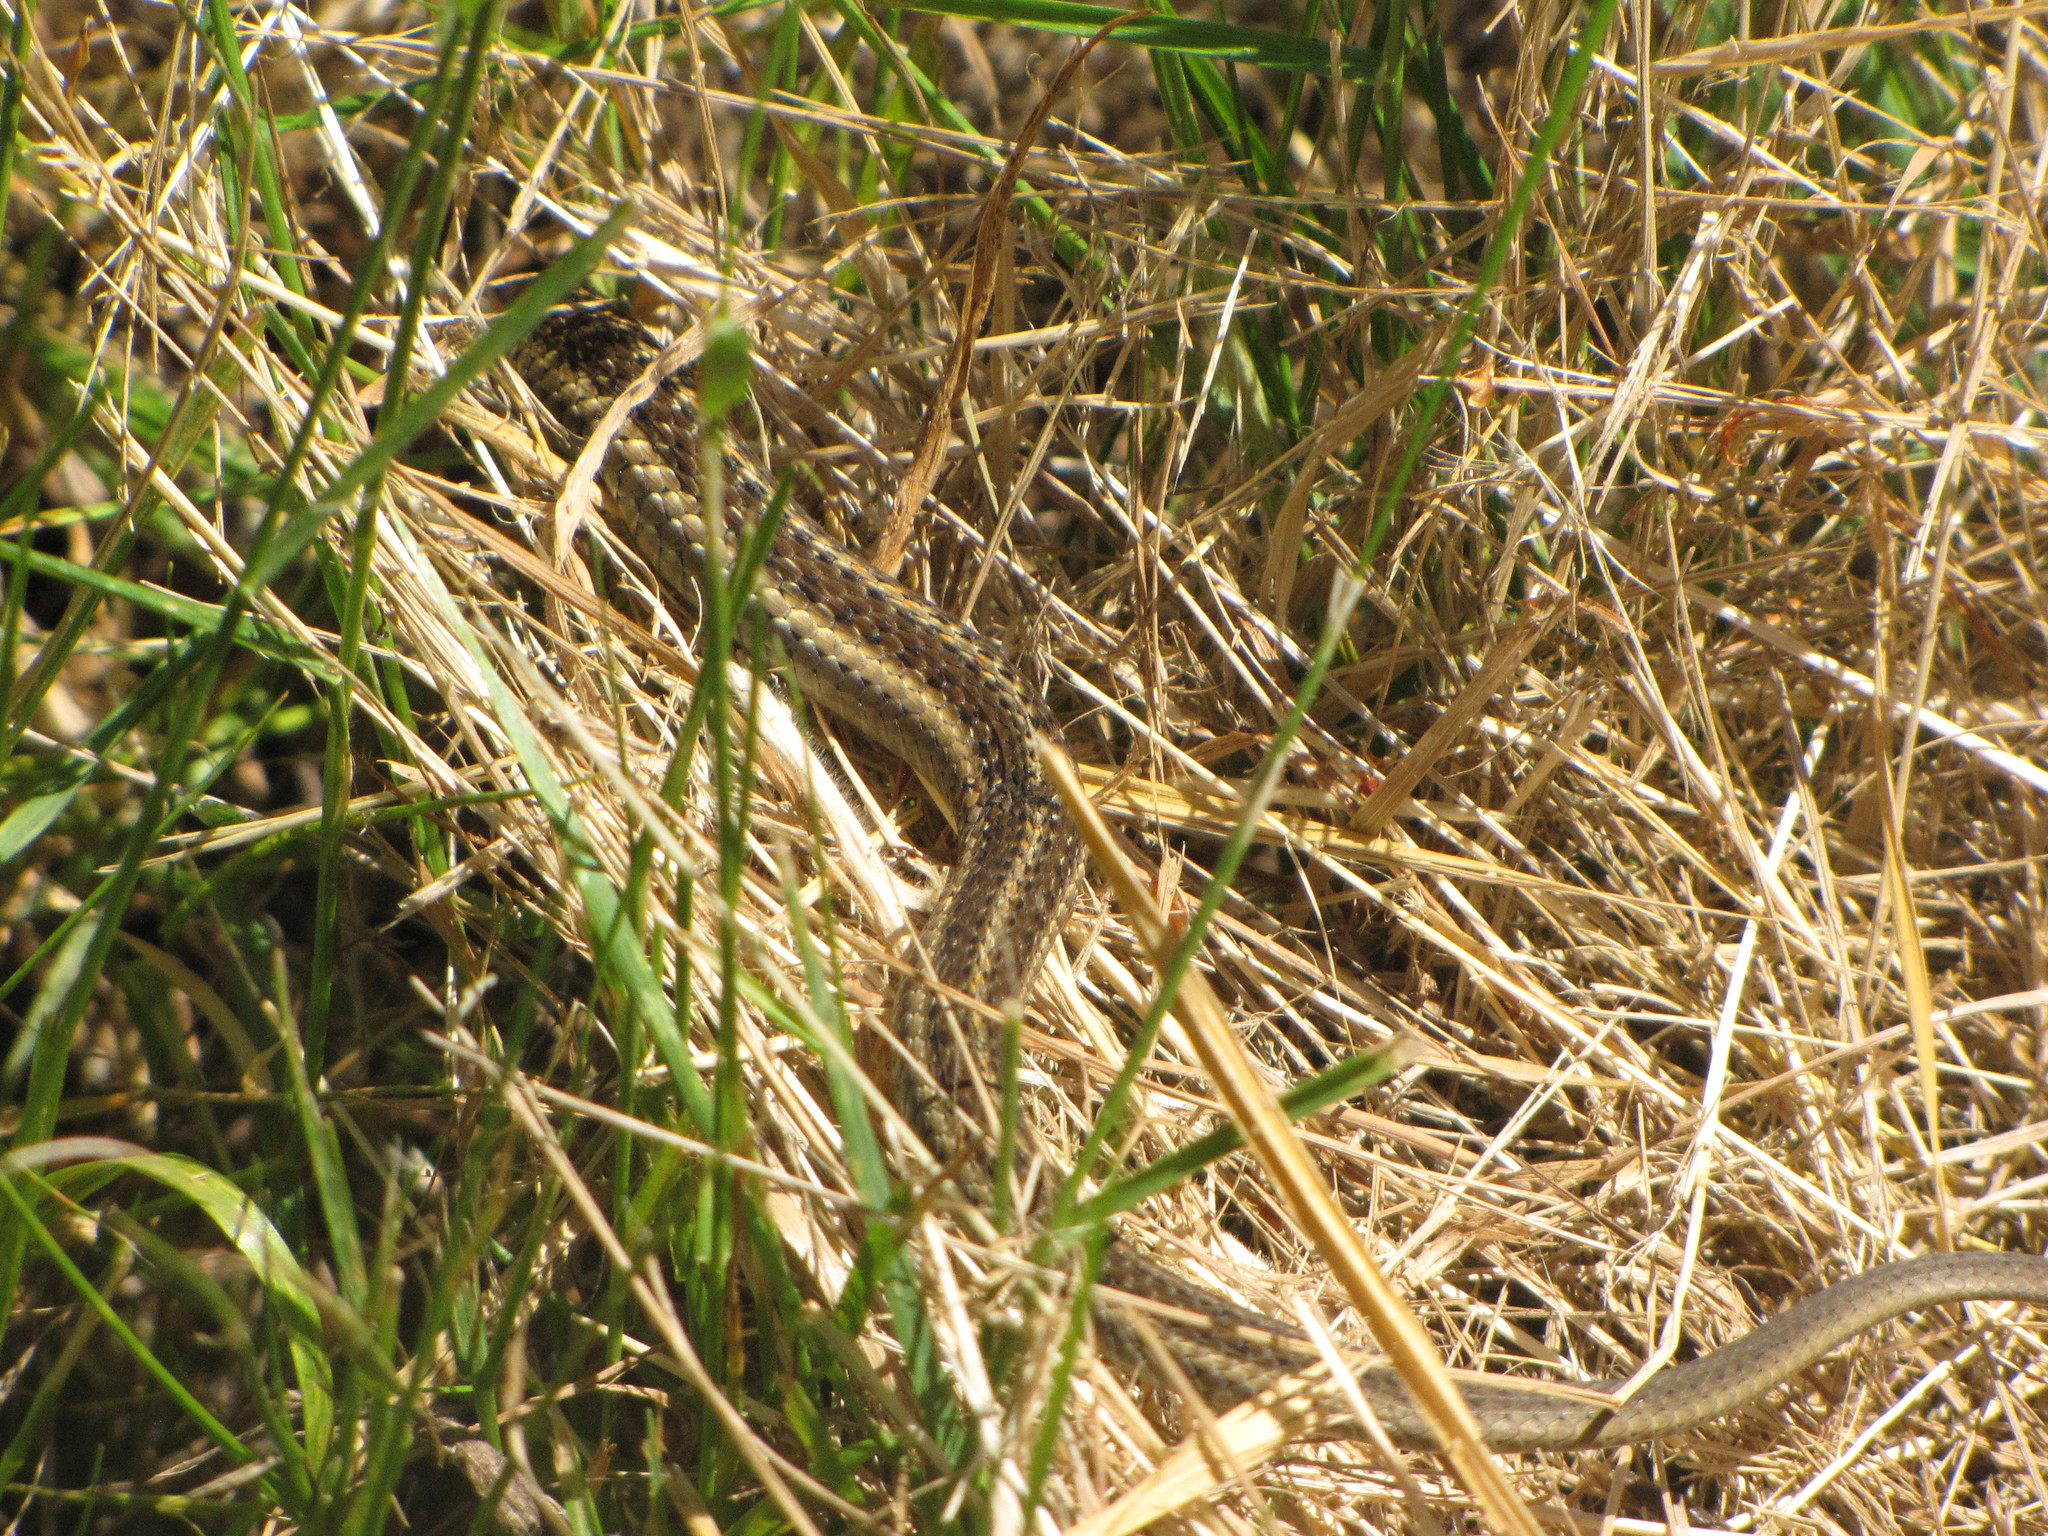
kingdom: Animalia
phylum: Chordata
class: Squamata
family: Colubridae
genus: Thamnophis
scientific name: Thamnophis ordinoides
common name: Northwestern garter snake
